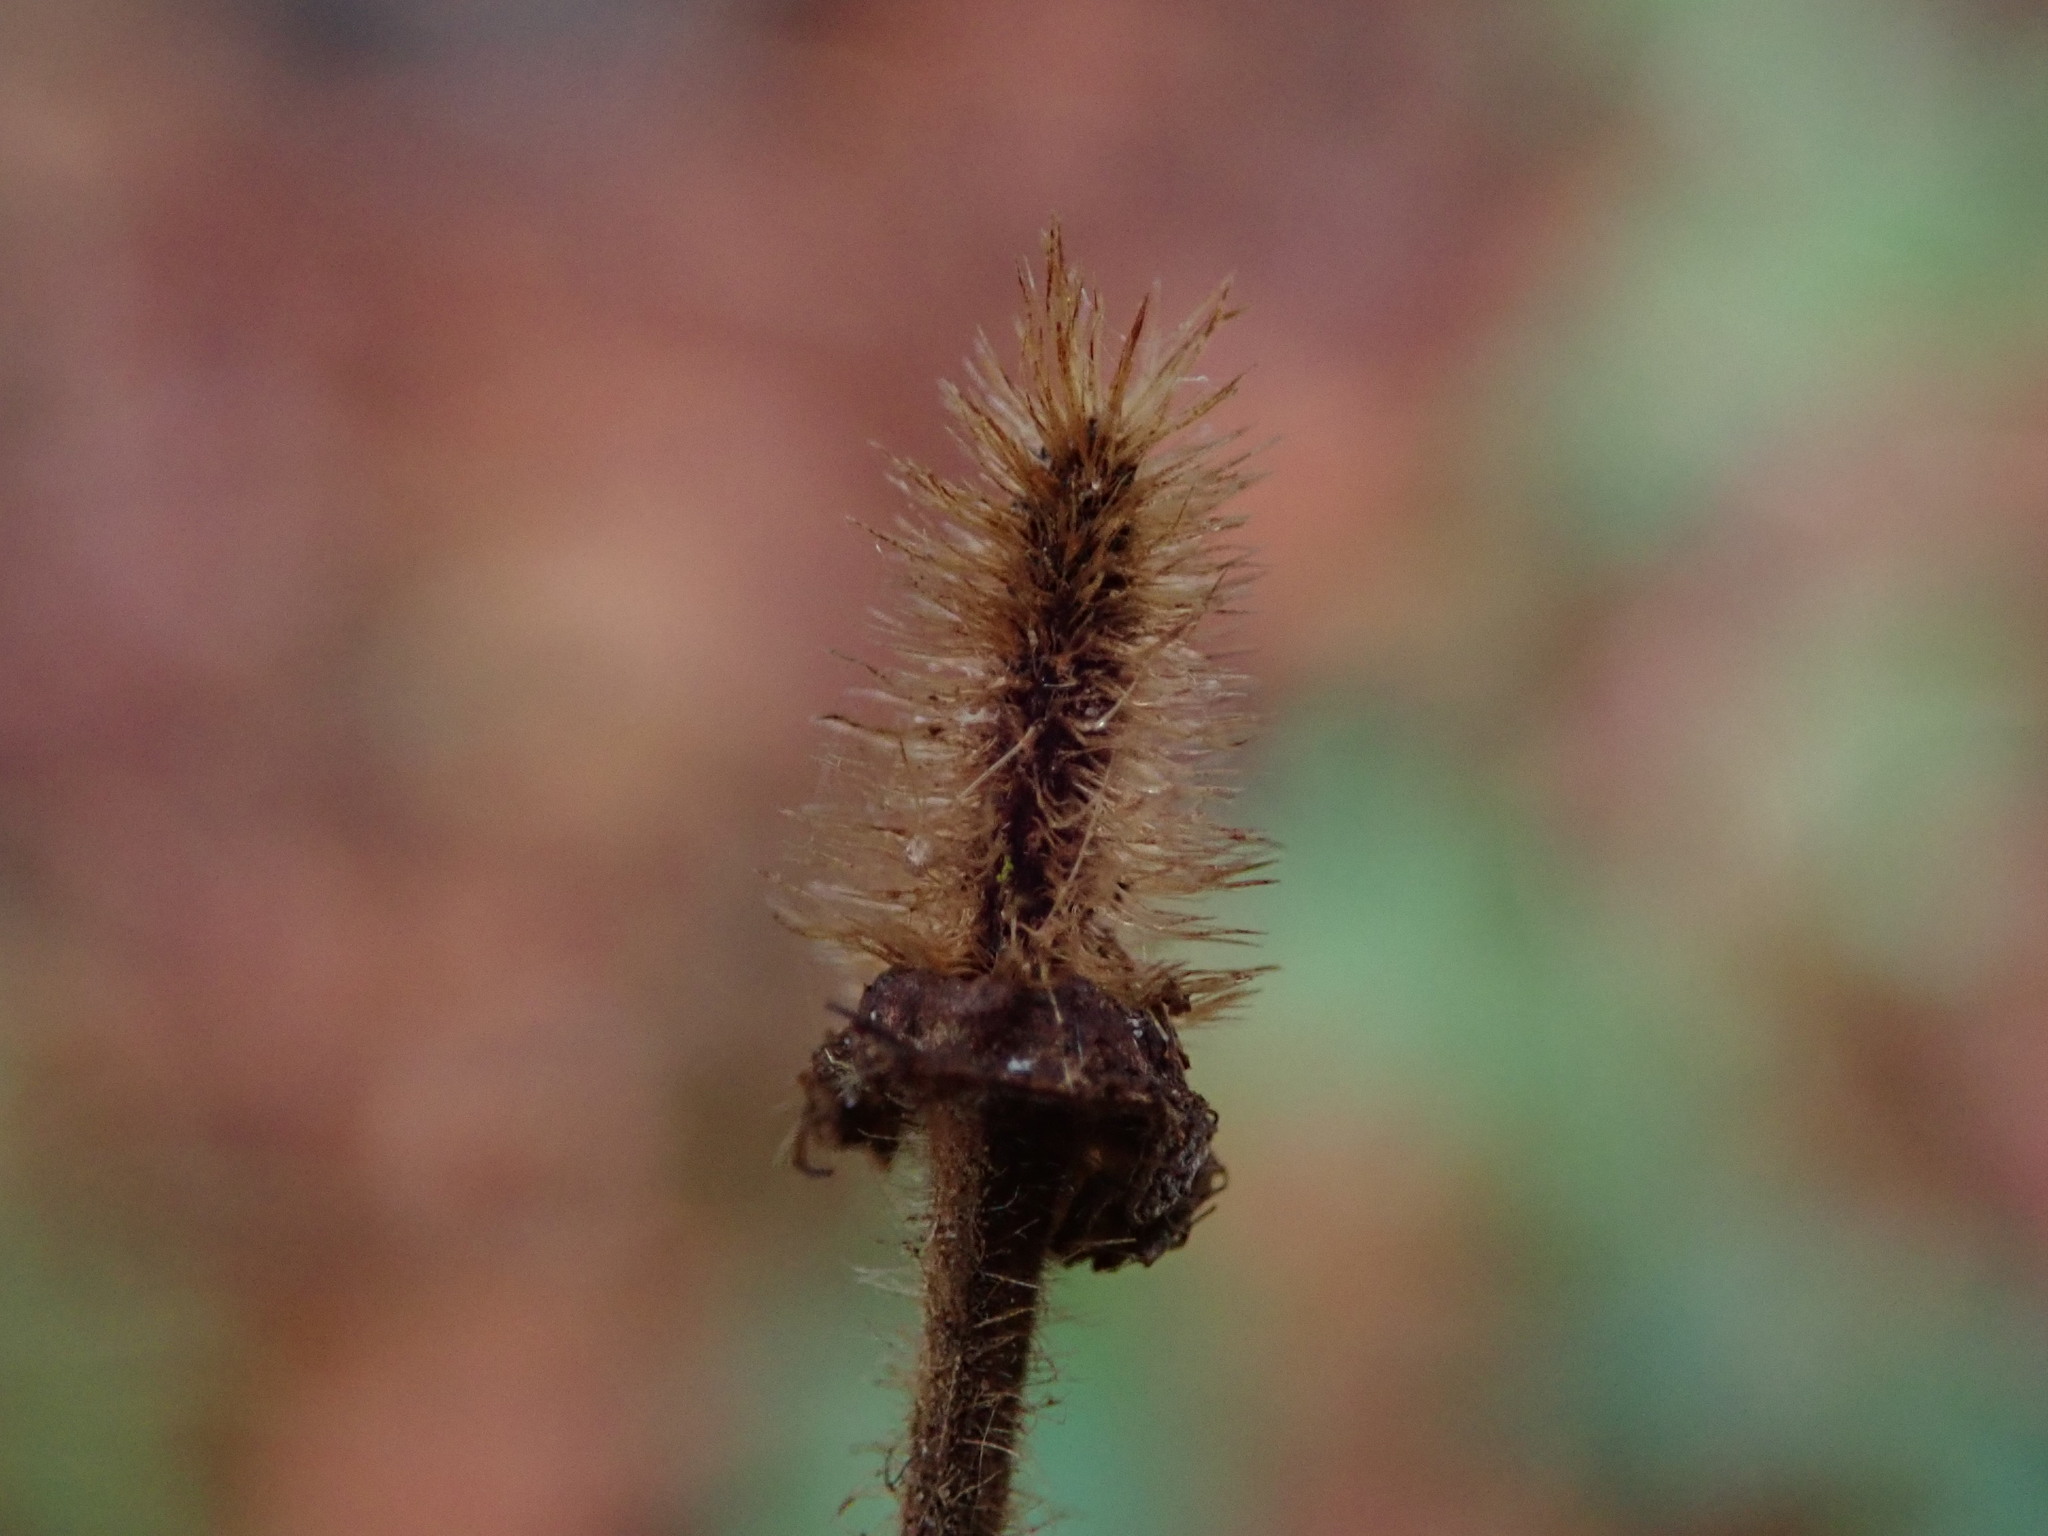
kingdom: Plantae
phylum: Tracheophyta
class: Magnoliopsida
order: Rosales
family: Rosaceae
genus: Geum
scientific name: Geum urbanum
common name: Wood avens
